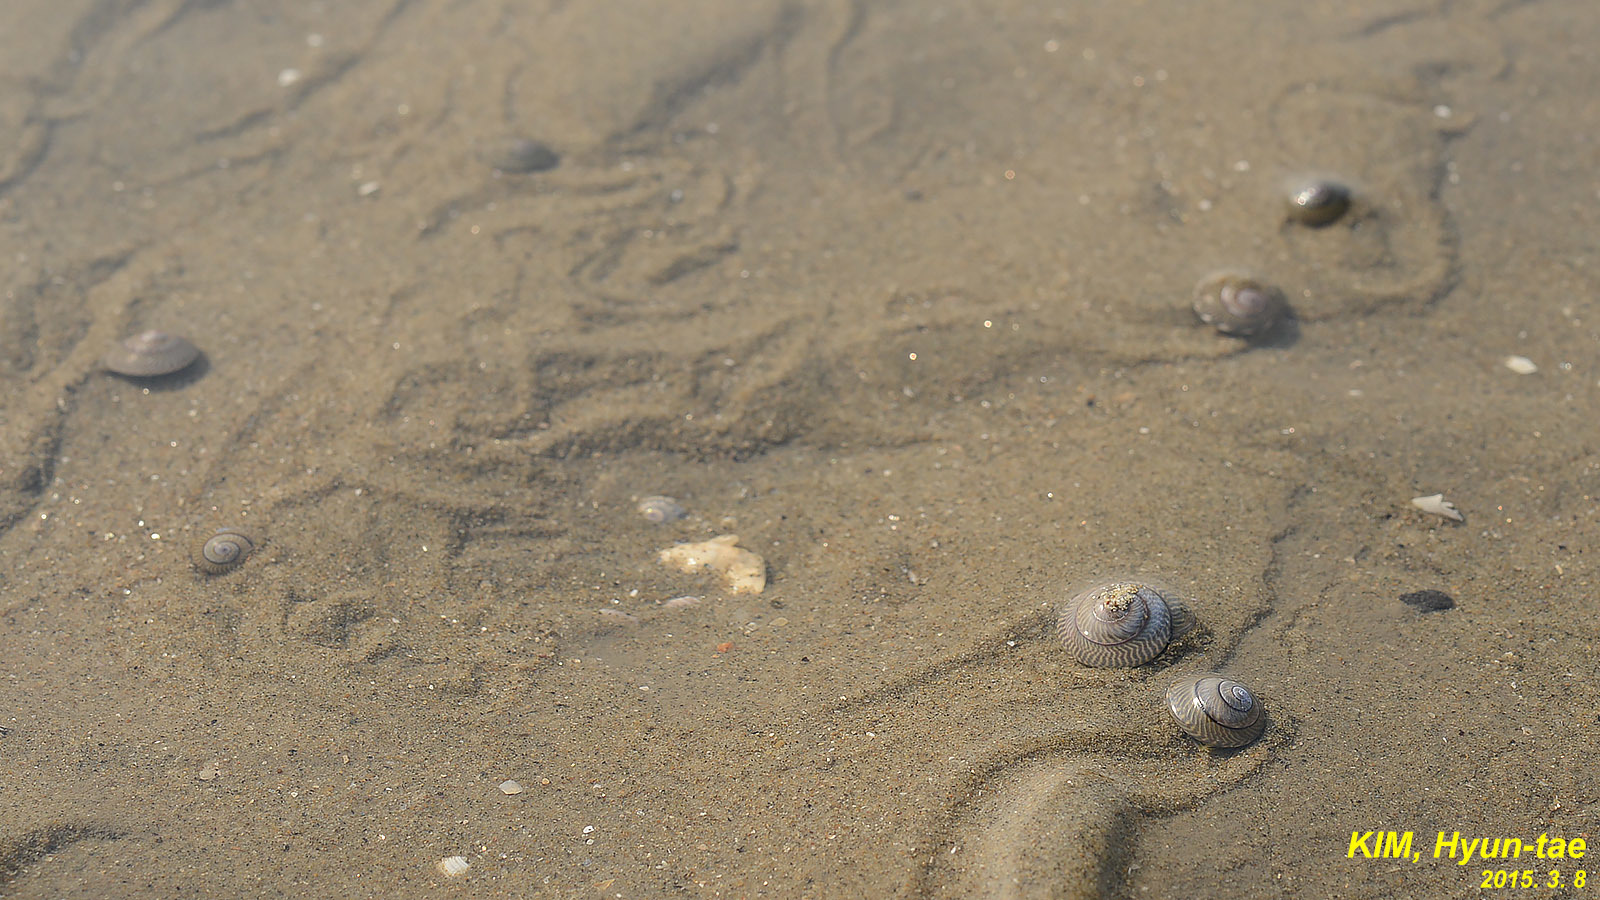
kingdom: Animalia
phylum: Mollusca
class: Gastropoda
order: Trochida
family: Trochidae
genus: Umbonium
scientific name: Umbonium thomasi
